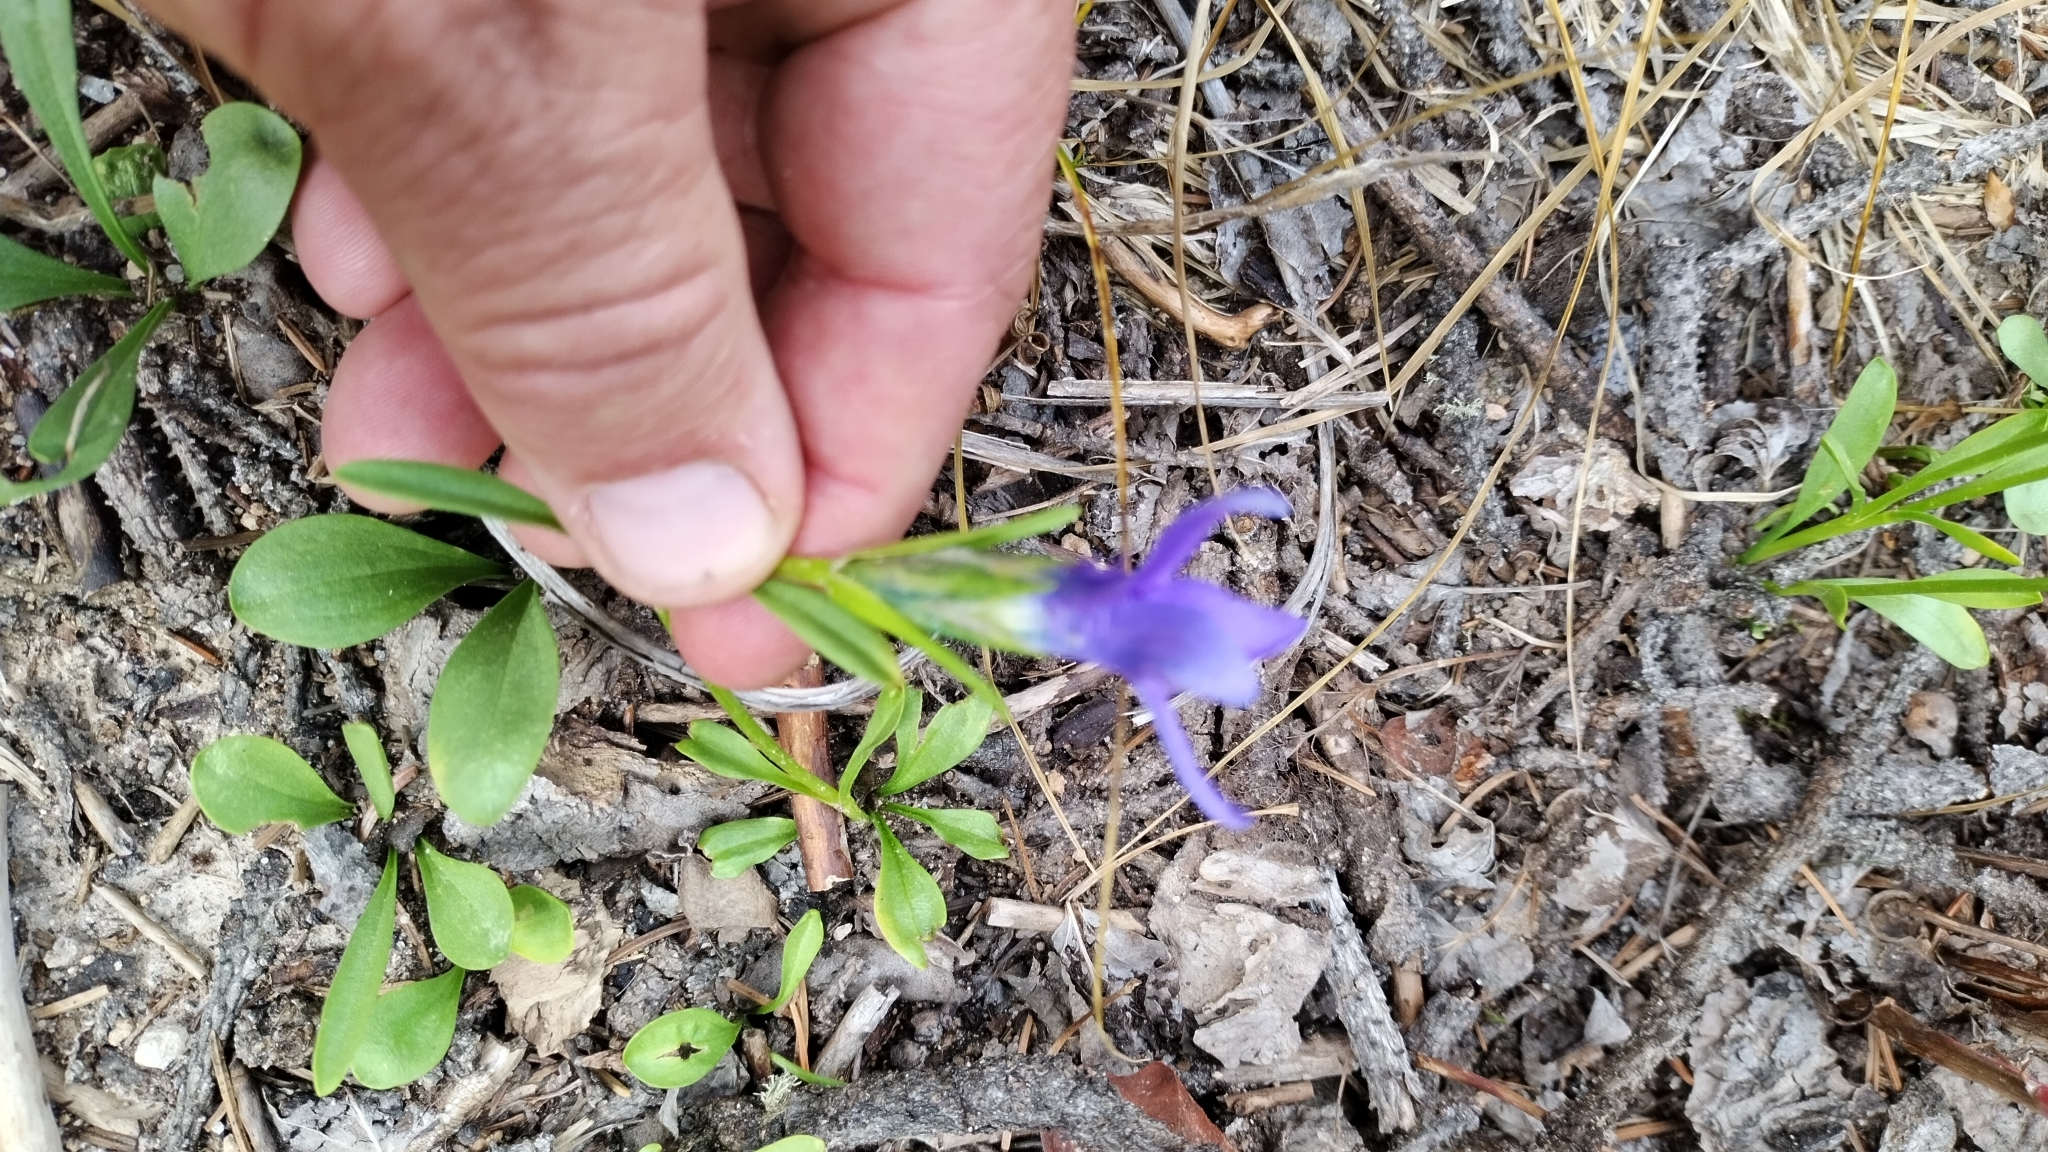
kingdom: Plantae
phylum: Tracheophyta
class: Magnoliopsida
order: Gentianales
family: Gentianaceae
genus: Gentianopsis
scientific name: Gentianopsis barbellata
